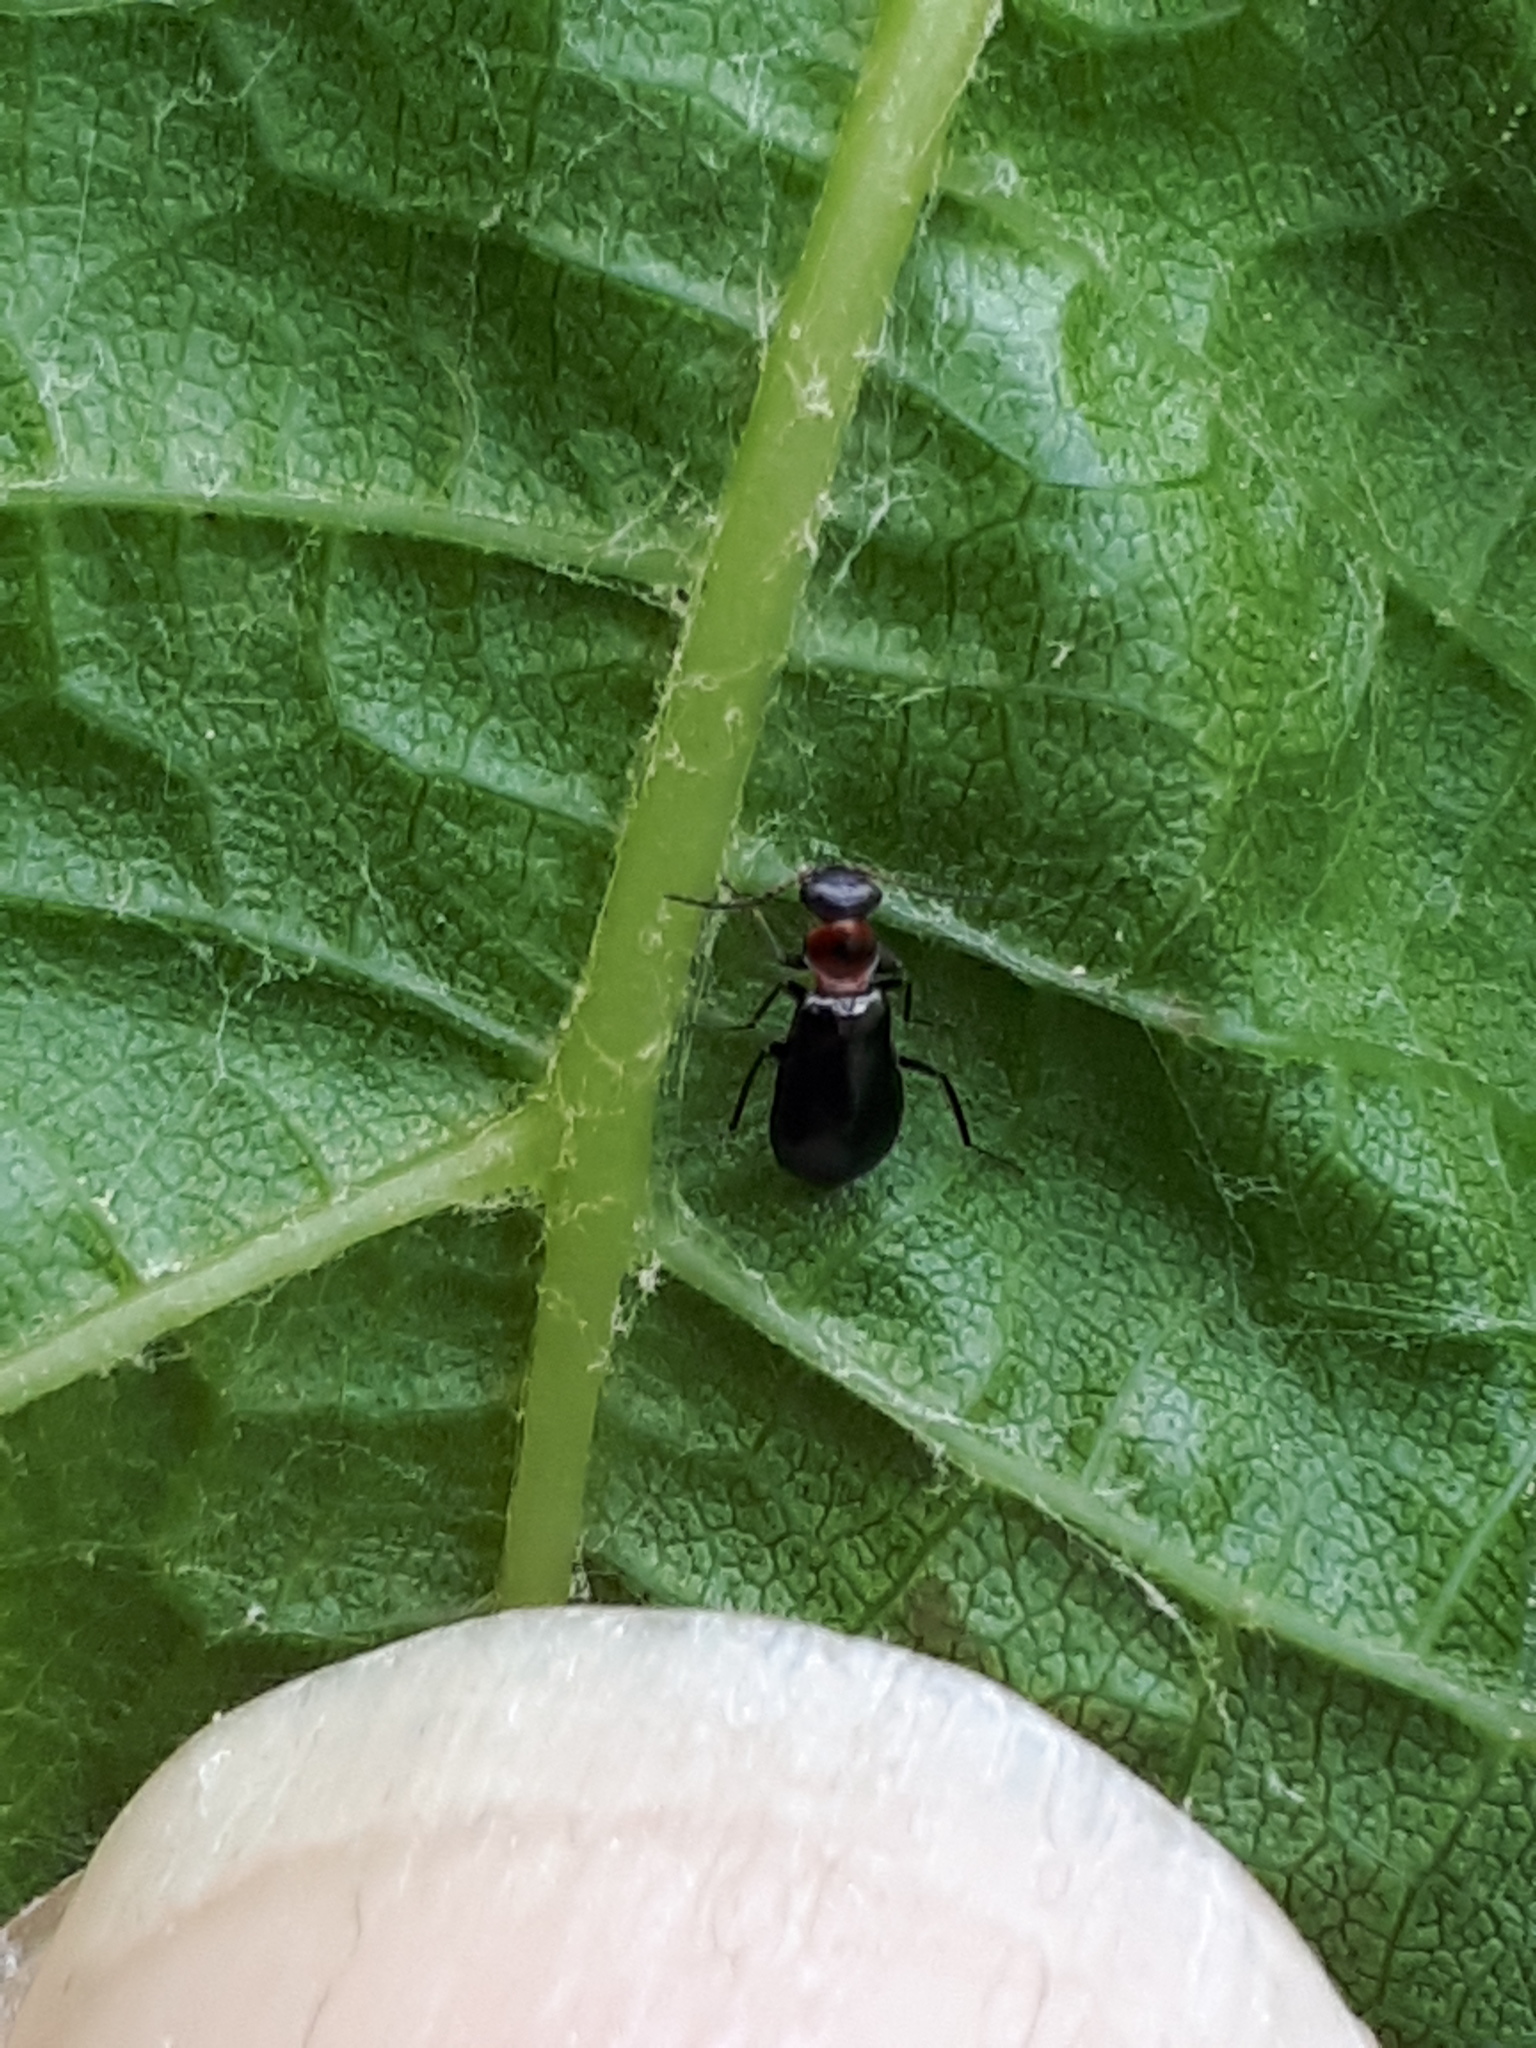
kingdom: Animalia
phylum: Arthropoda
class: Insecta
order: Coleoptera
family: Melyridae
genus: Troglops
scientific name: Troglops albicans
